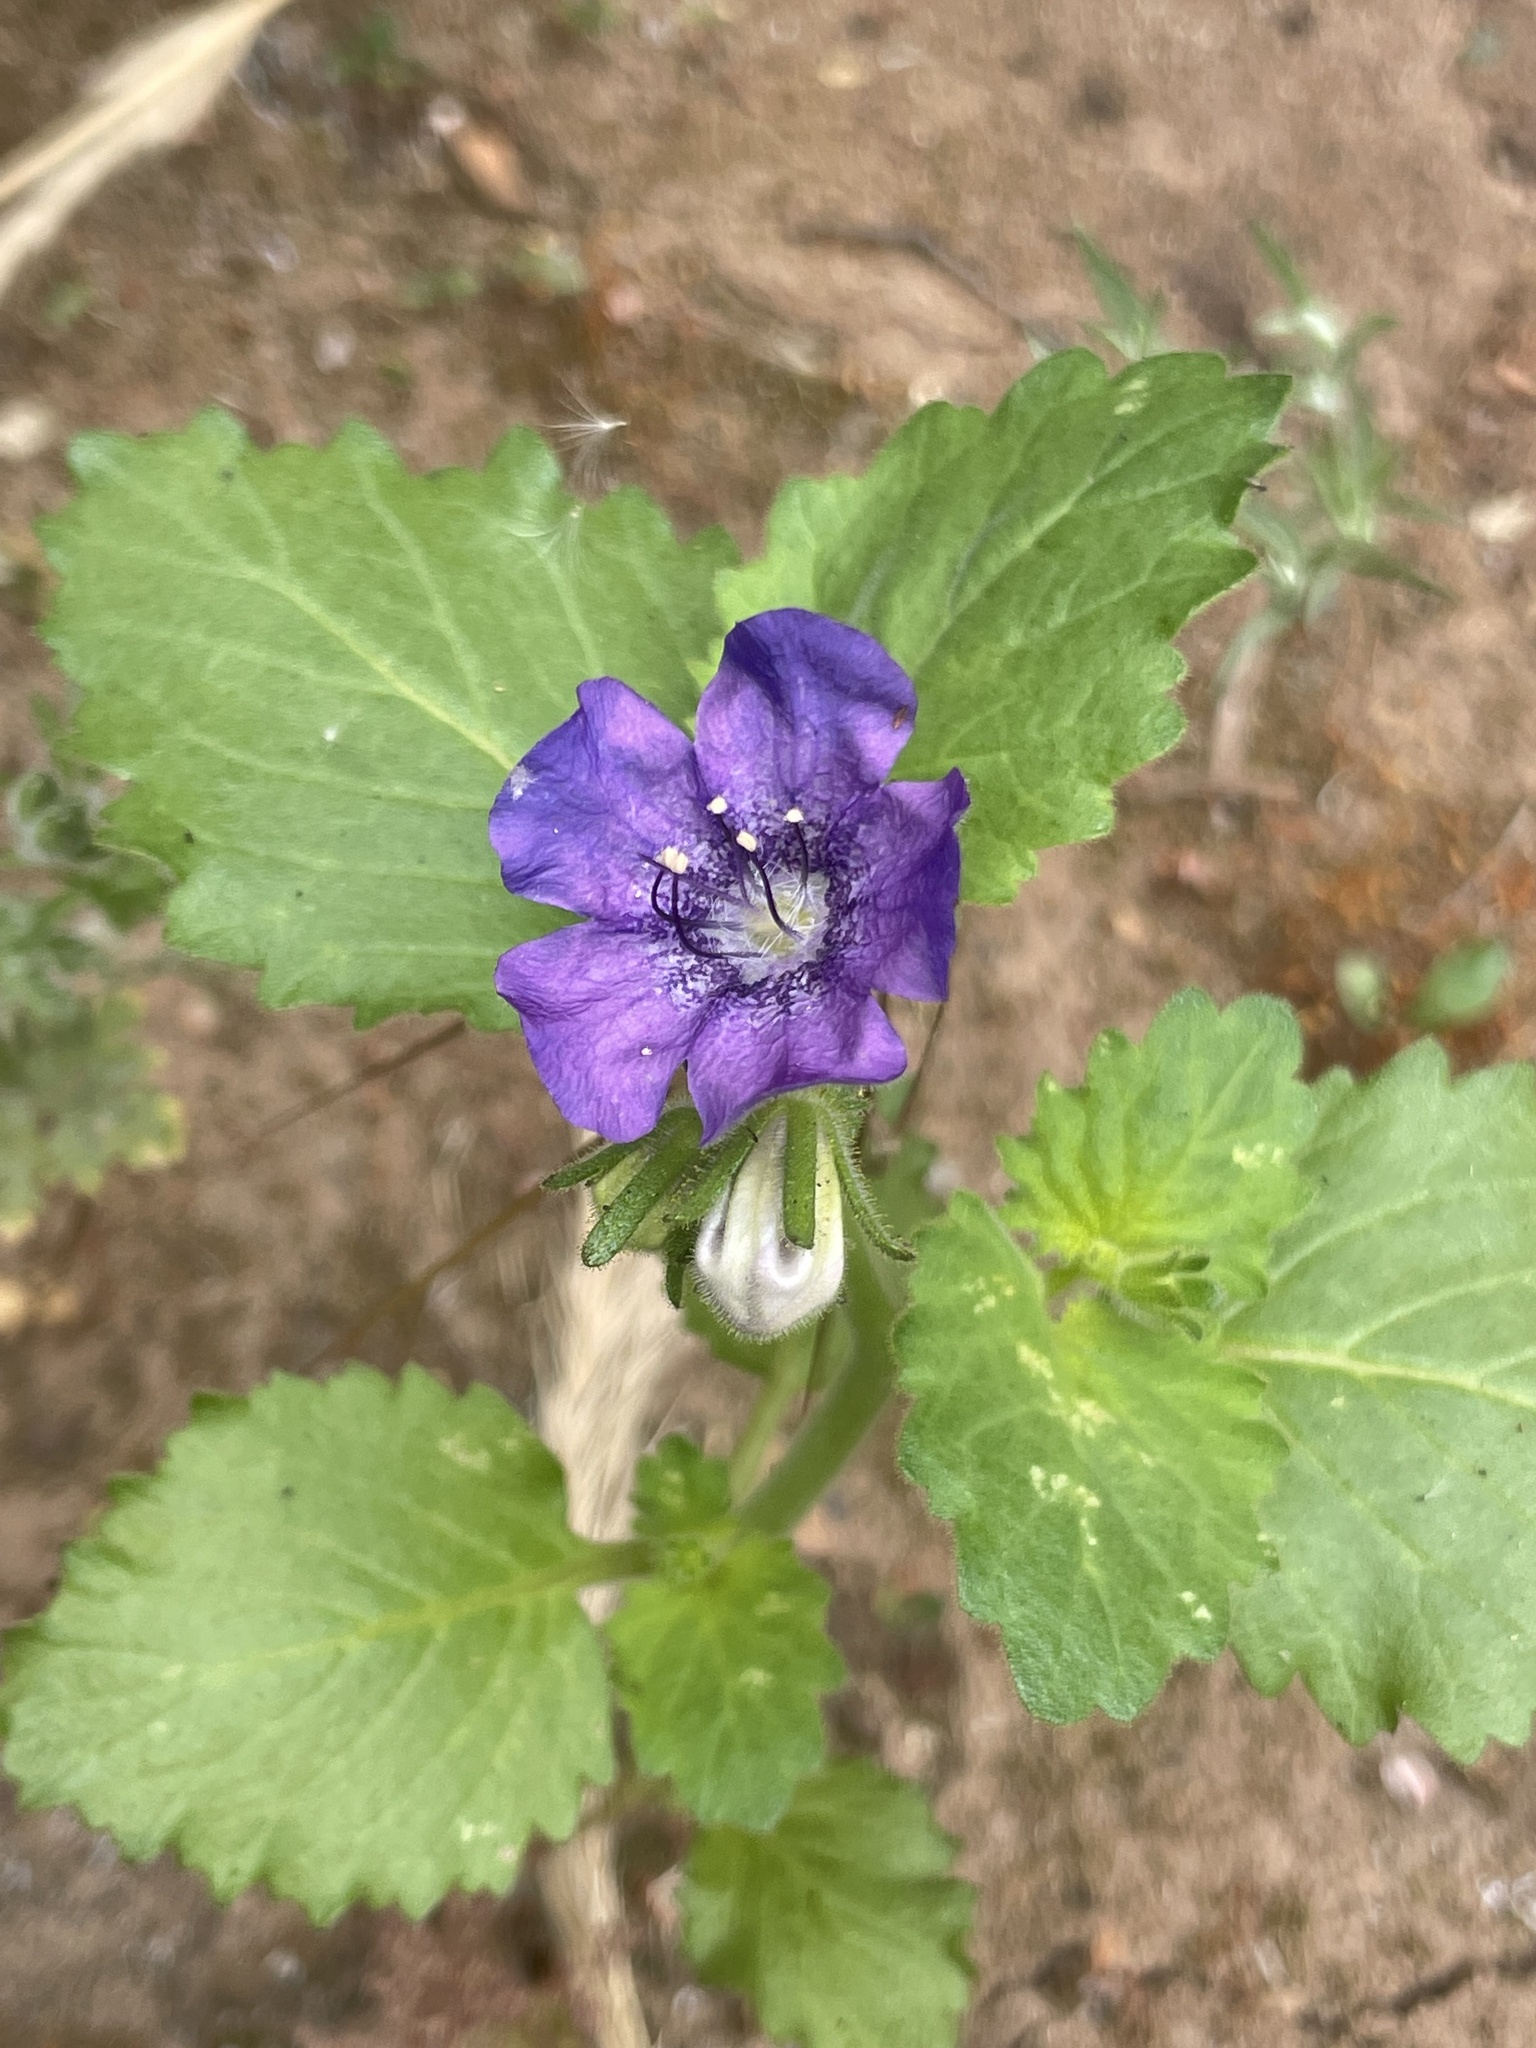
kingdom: Plantae
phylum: Tracheophyta
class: Magnoliopsida
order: Boraginales
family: Hydrophyllaceae
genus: Phacelia
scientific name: Phacelia grandiflora
